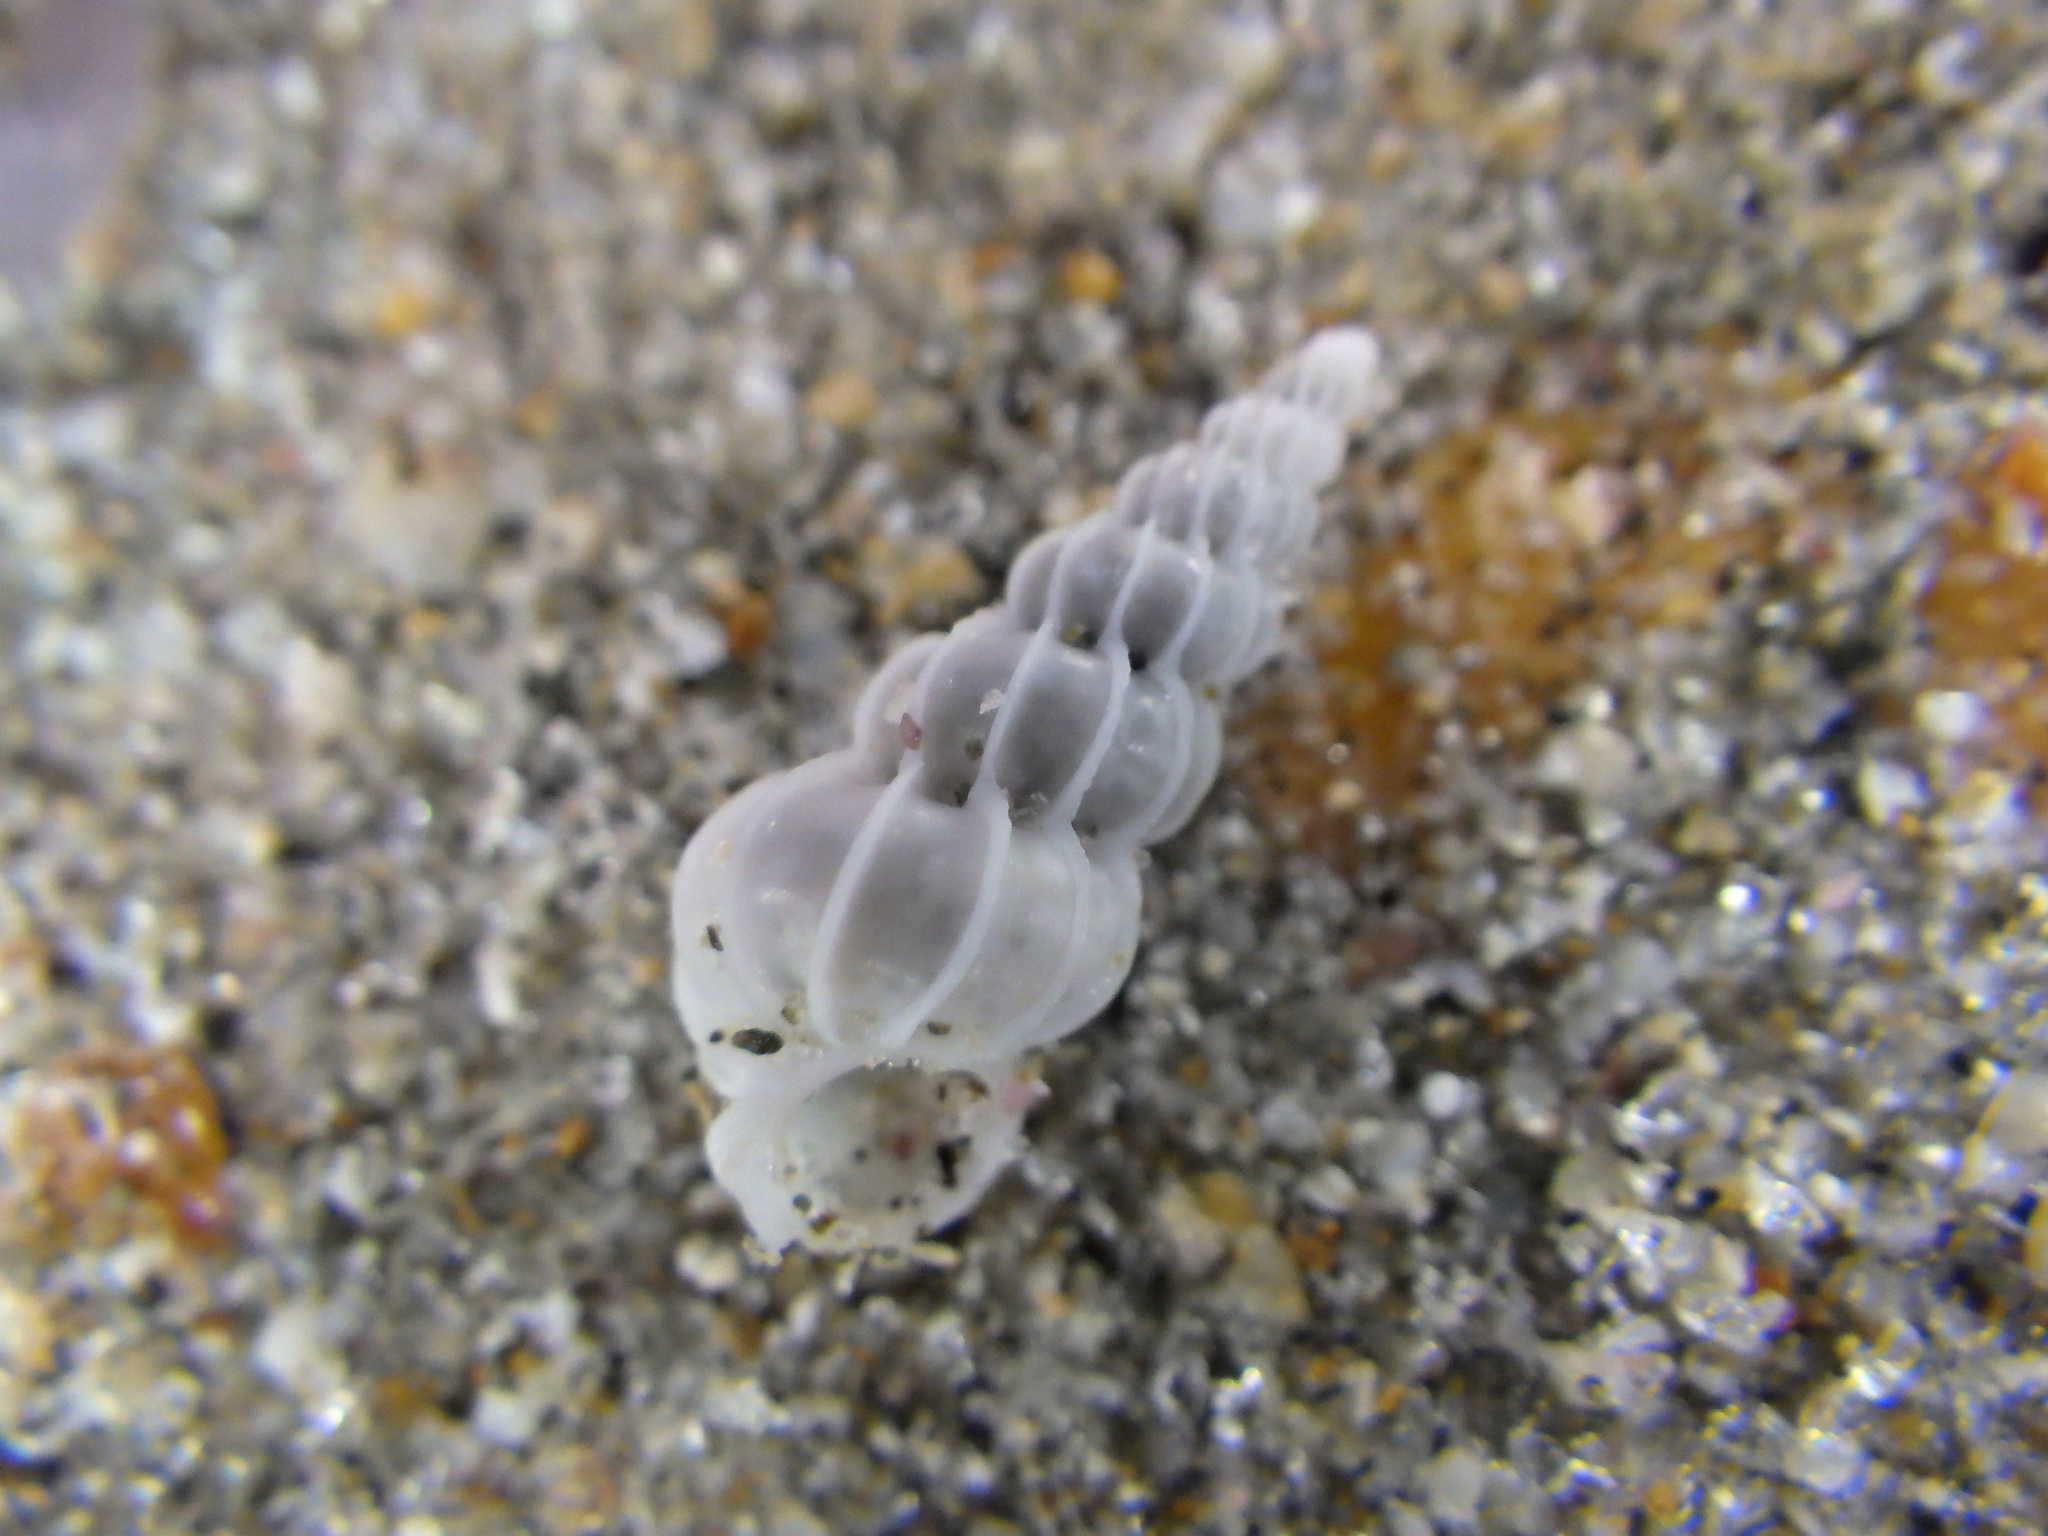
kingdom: Animalia
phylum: Mollusca
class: Gastropoda
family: Epitoniidae
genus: Epitonium
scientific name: Epitonium minorum
